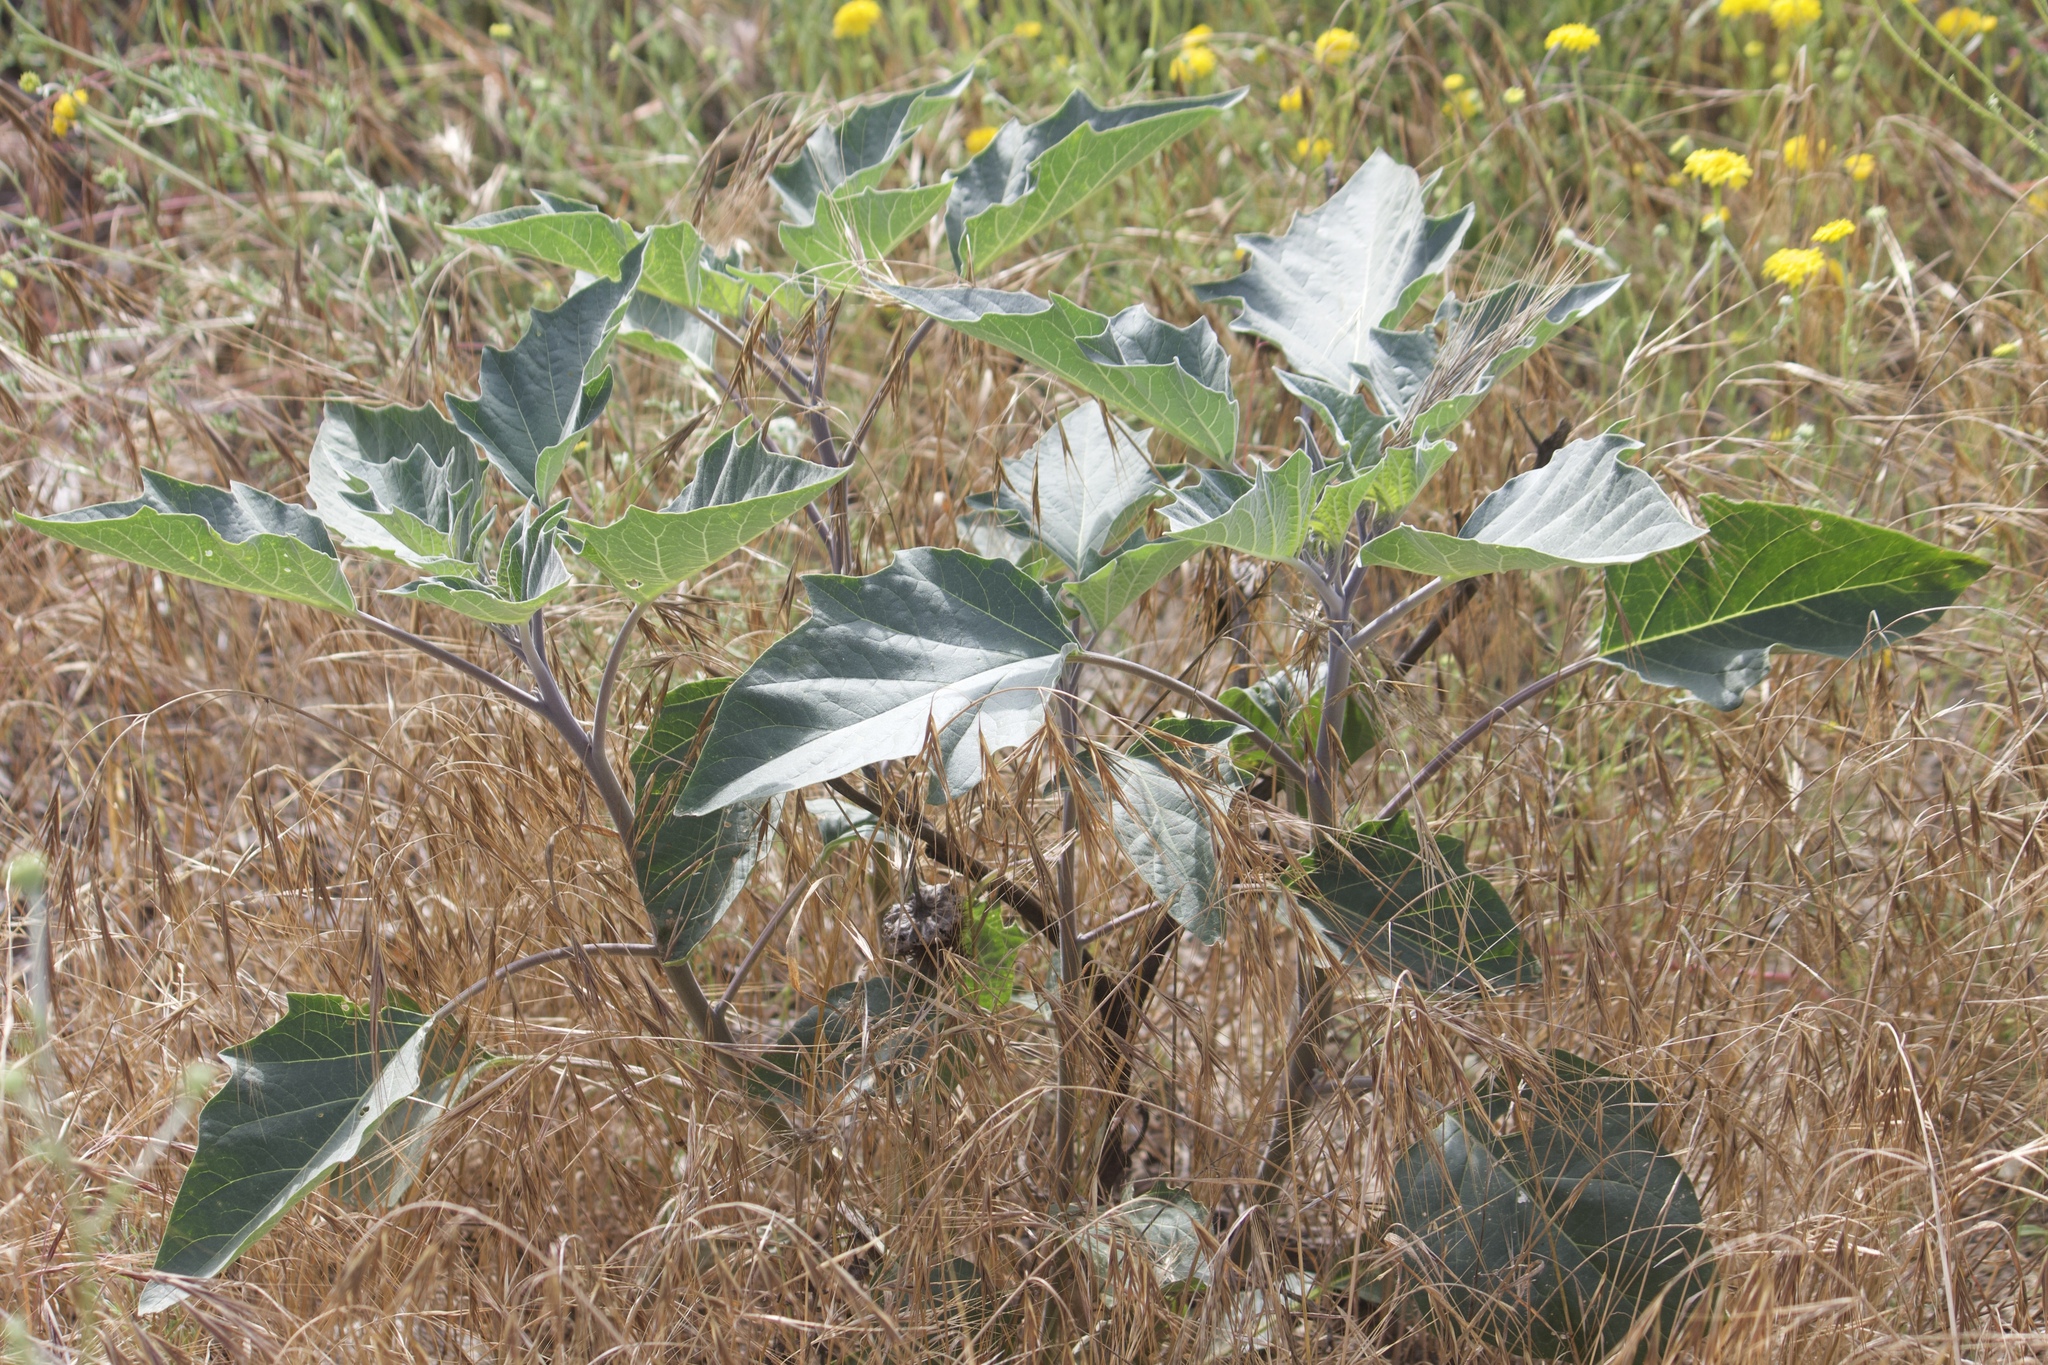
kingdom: Plantae
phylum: Tracheophyta
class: Magnoliopsida
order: Solanales
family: Solanaceae
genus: Datura
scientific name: Datura wrightii
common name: Sacred thorn-apple
